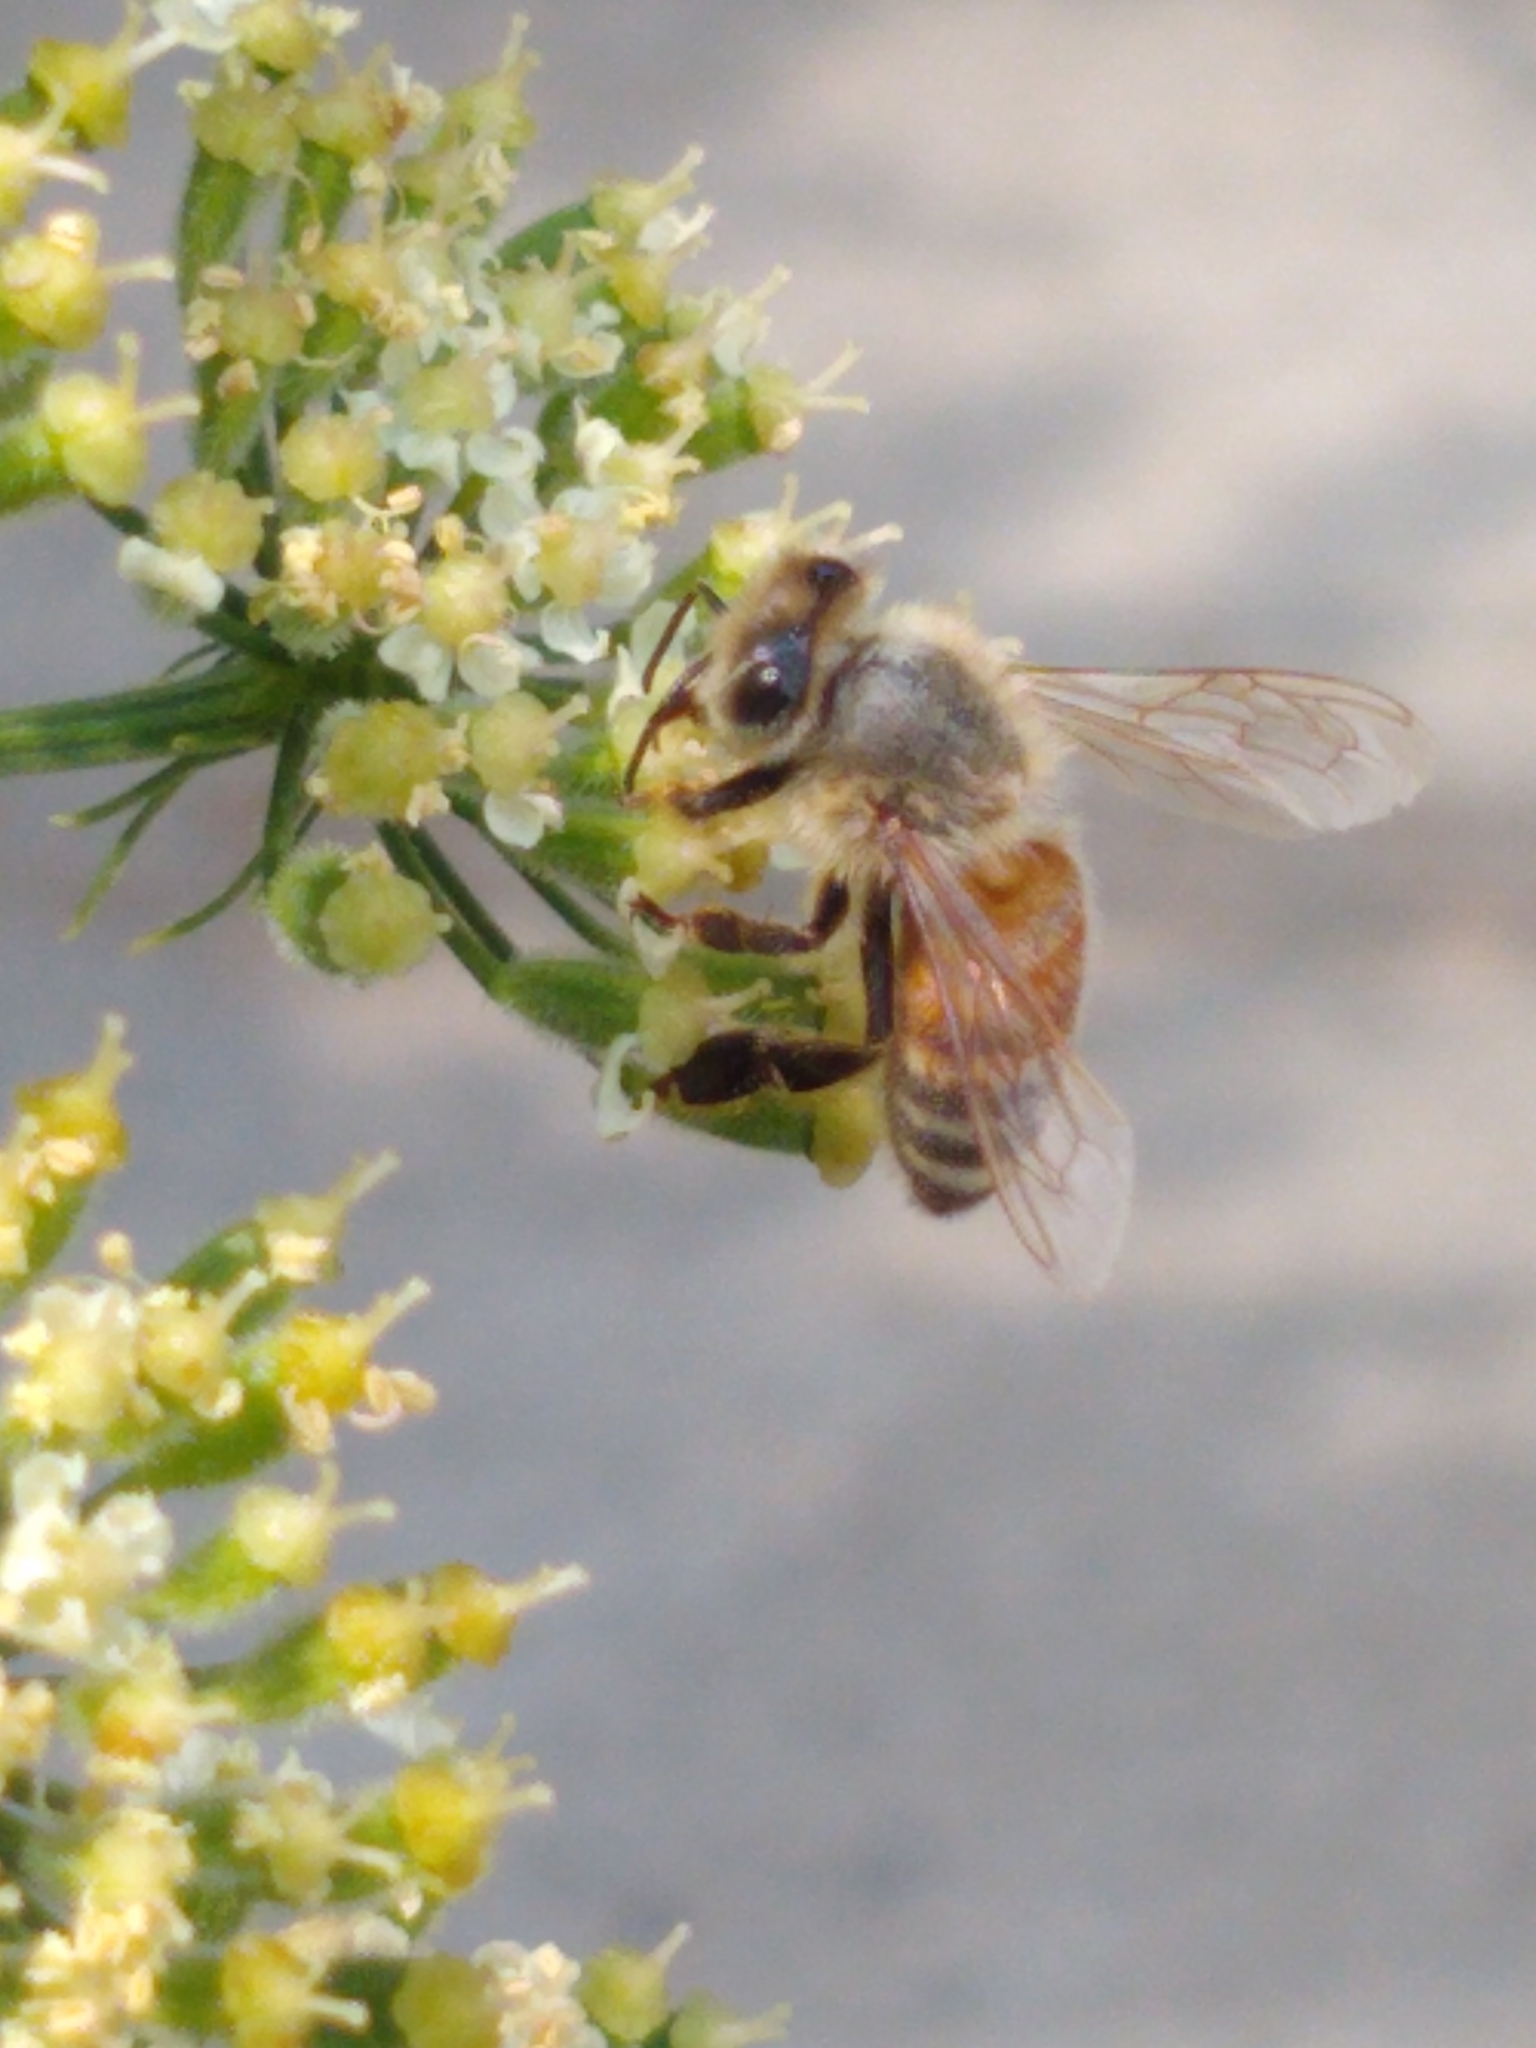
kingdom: Animalia
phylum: Arthropoda
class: Insecta
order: Hymenoptera
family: Apidae
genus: Apis
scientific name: Apis mellifera
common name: Honey bee
